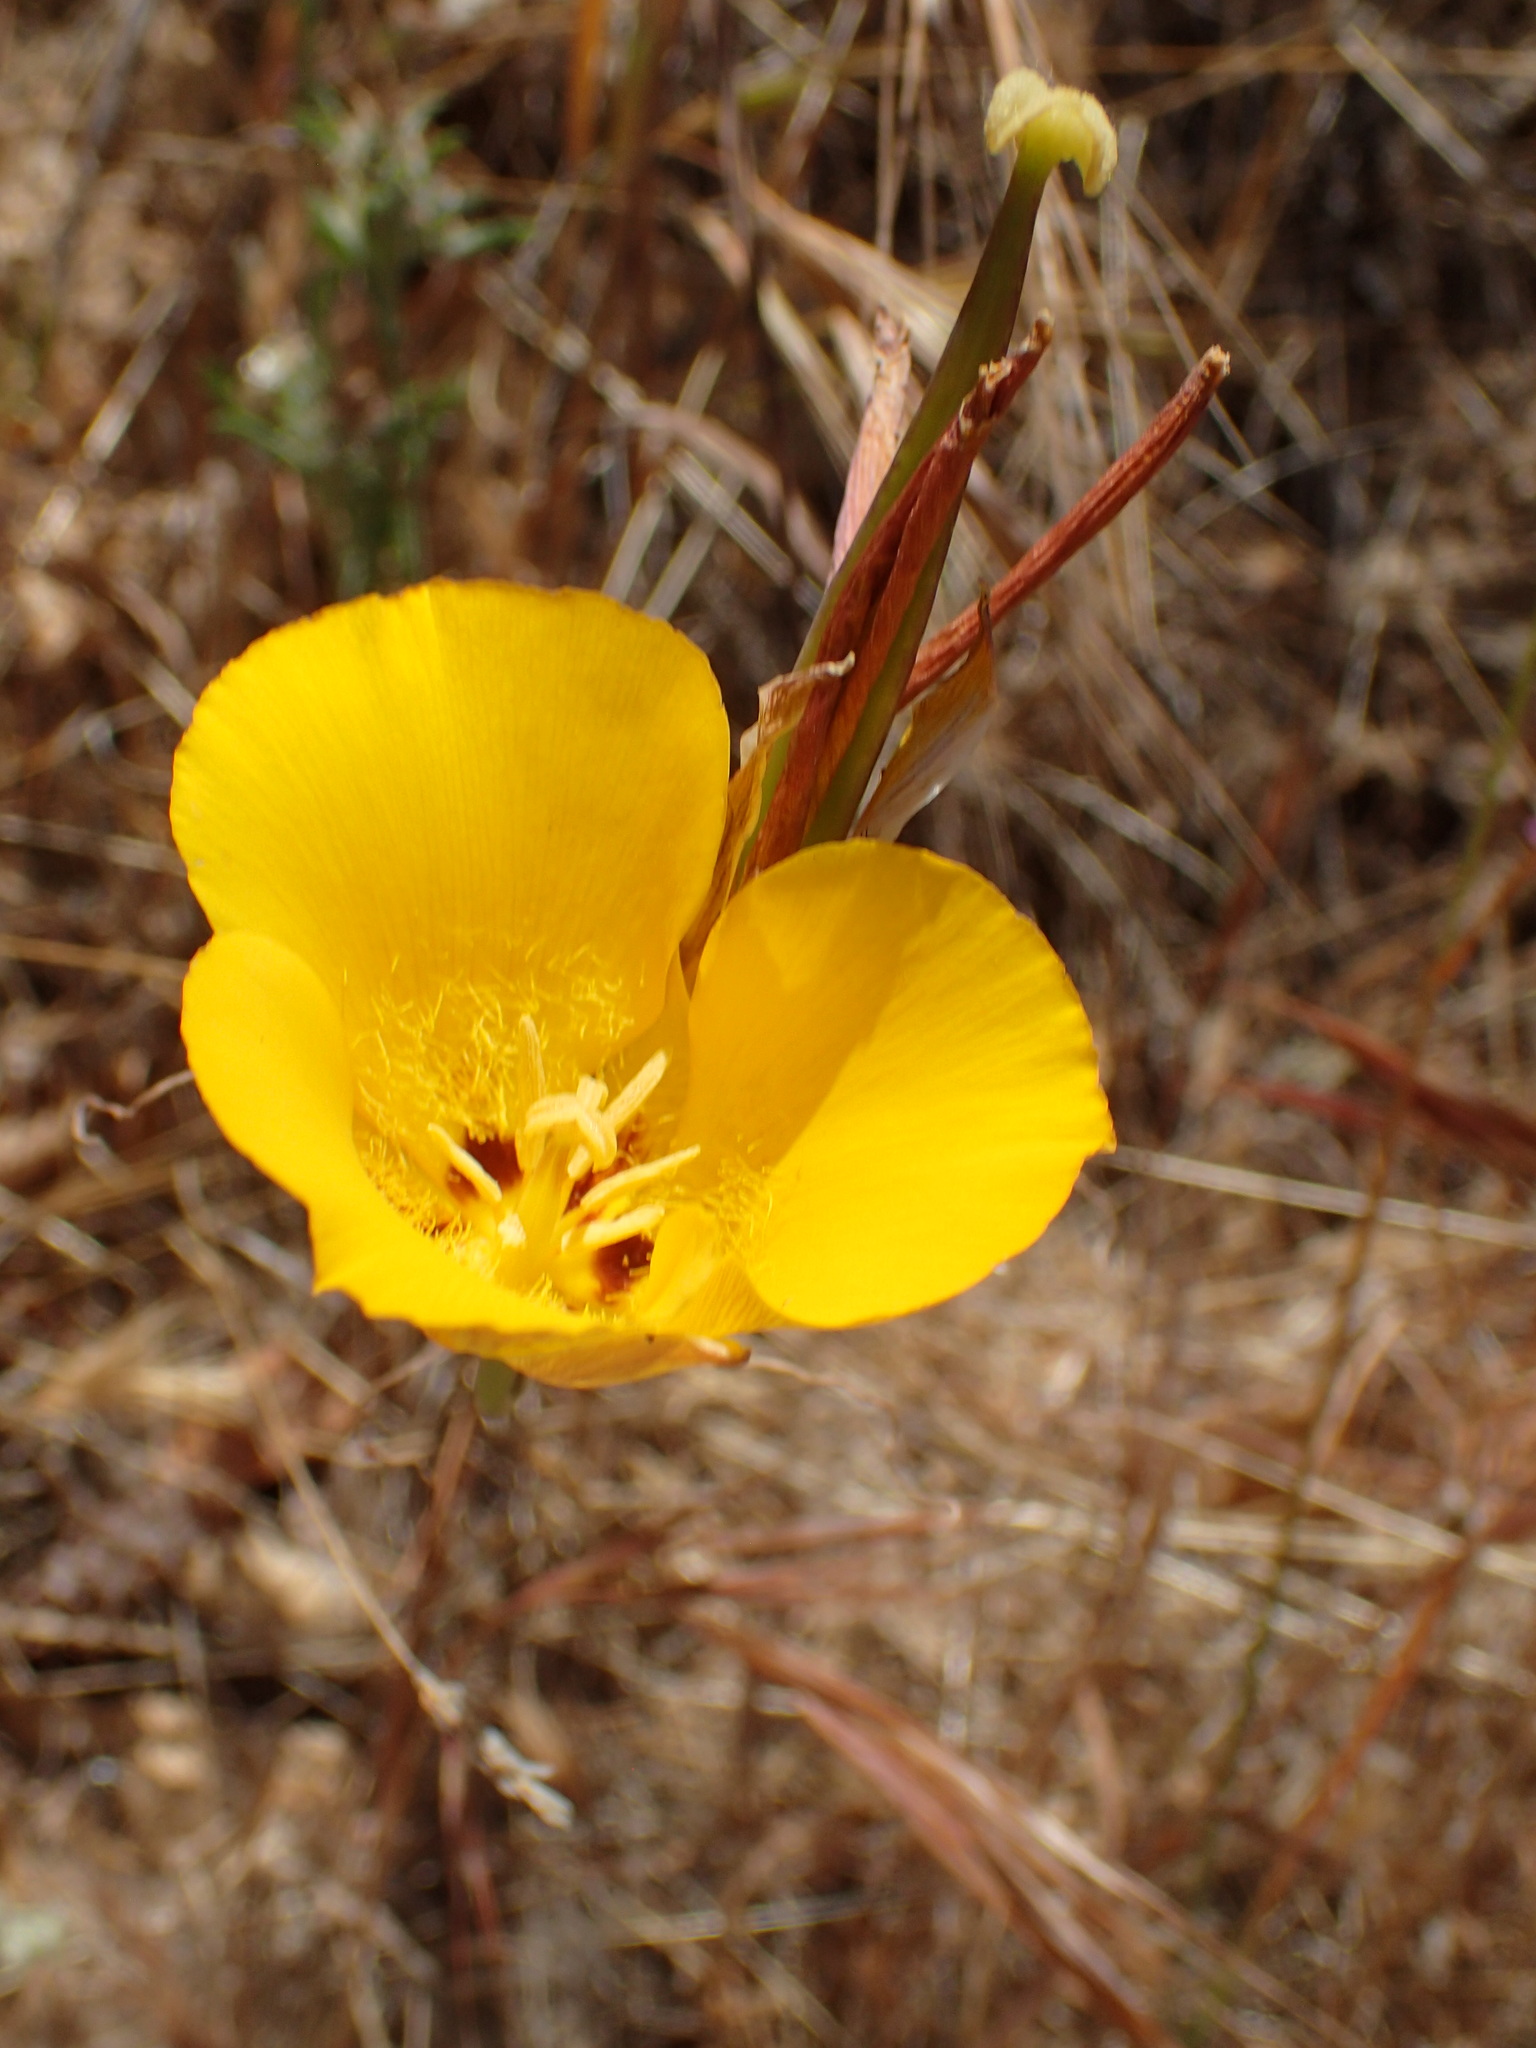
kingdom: Plantae
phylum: Tracheophyta
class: Liliopsida
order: Liliales
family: Liliaceae
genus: Calochortus
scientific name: Calochortus clavatus
